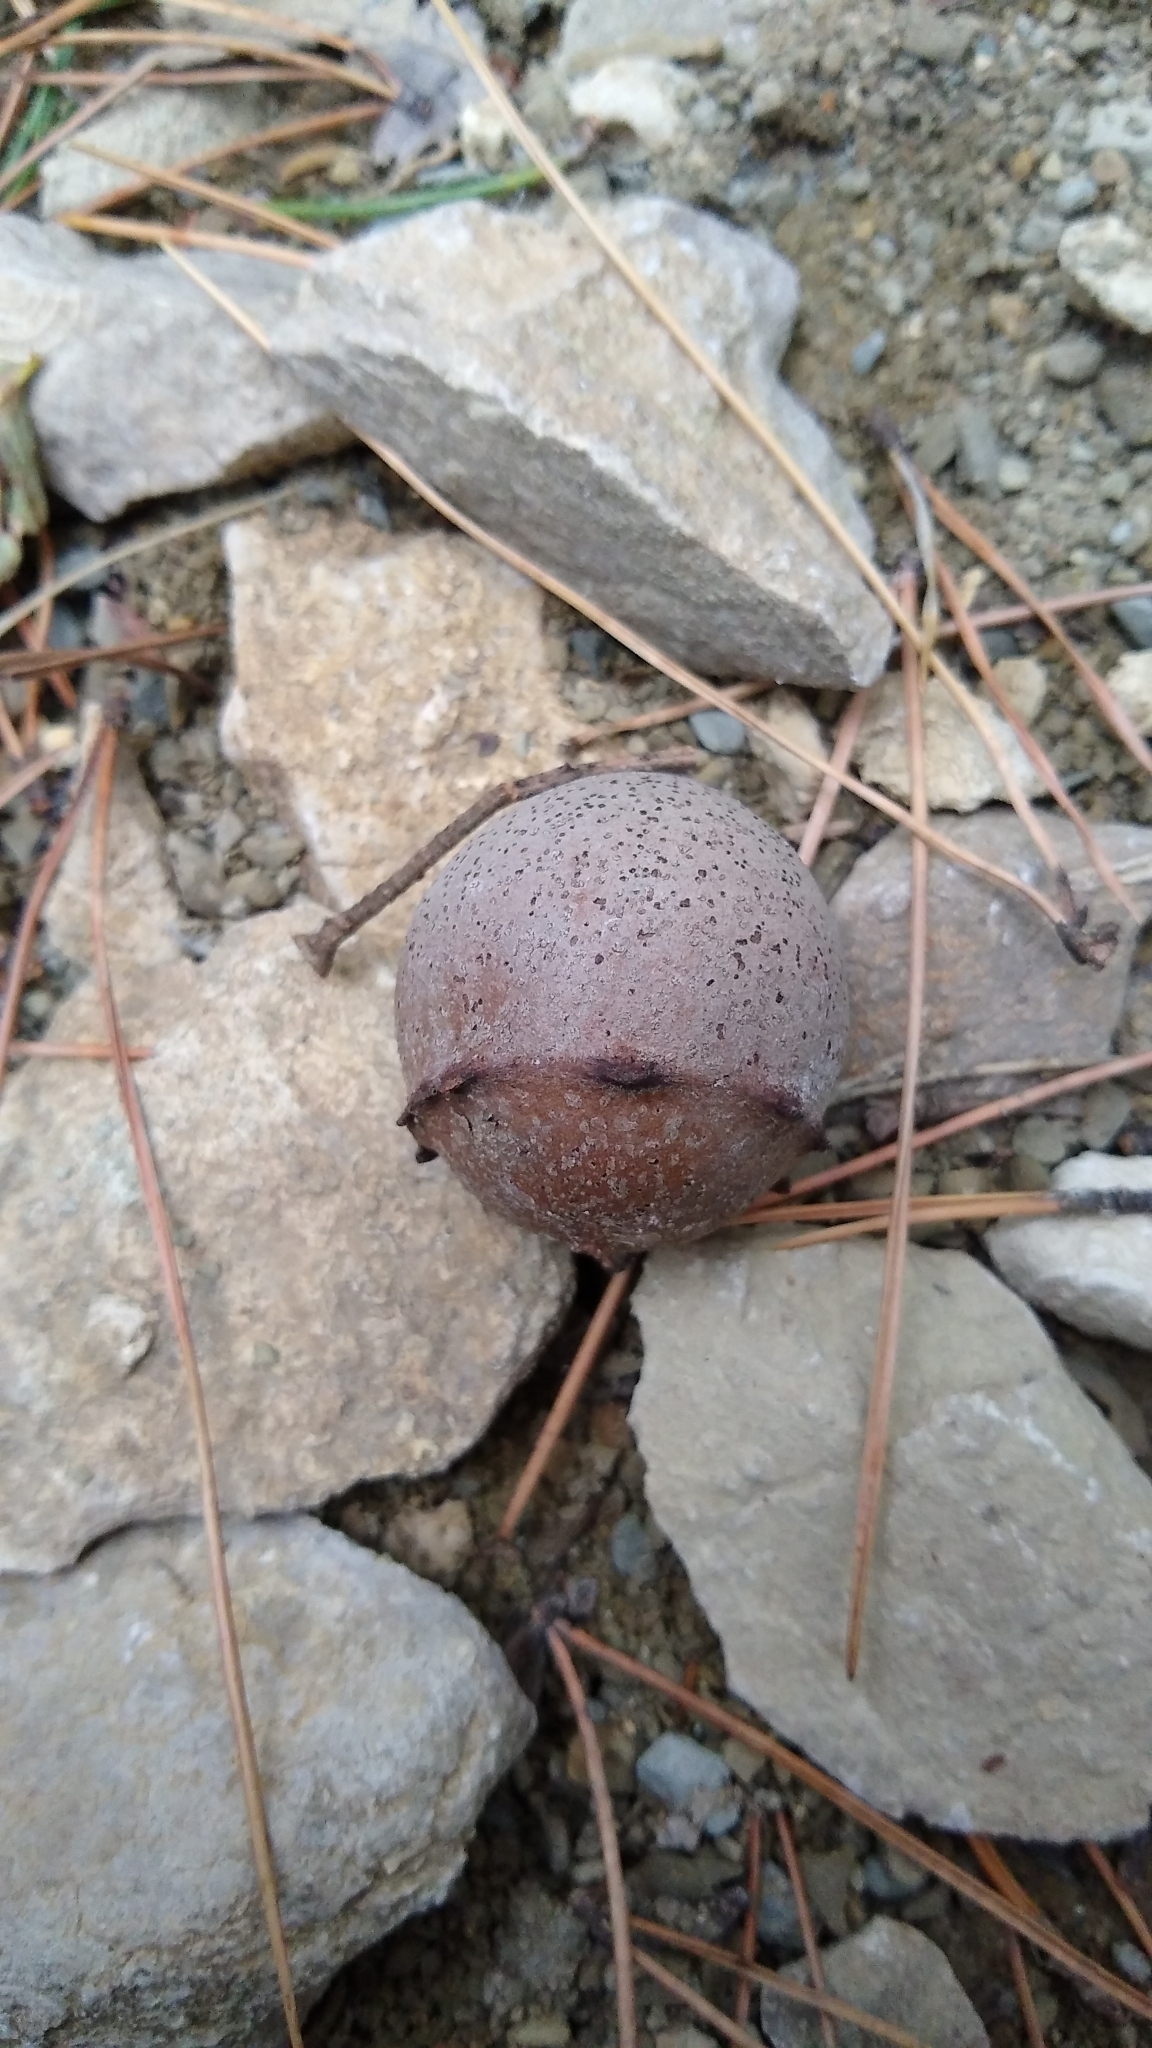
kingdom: Animalia
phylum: Arthropoda
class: Insecta
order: Hymenoptera
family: Cynipidae
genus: Andricus
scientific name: Andricus quercustozae
